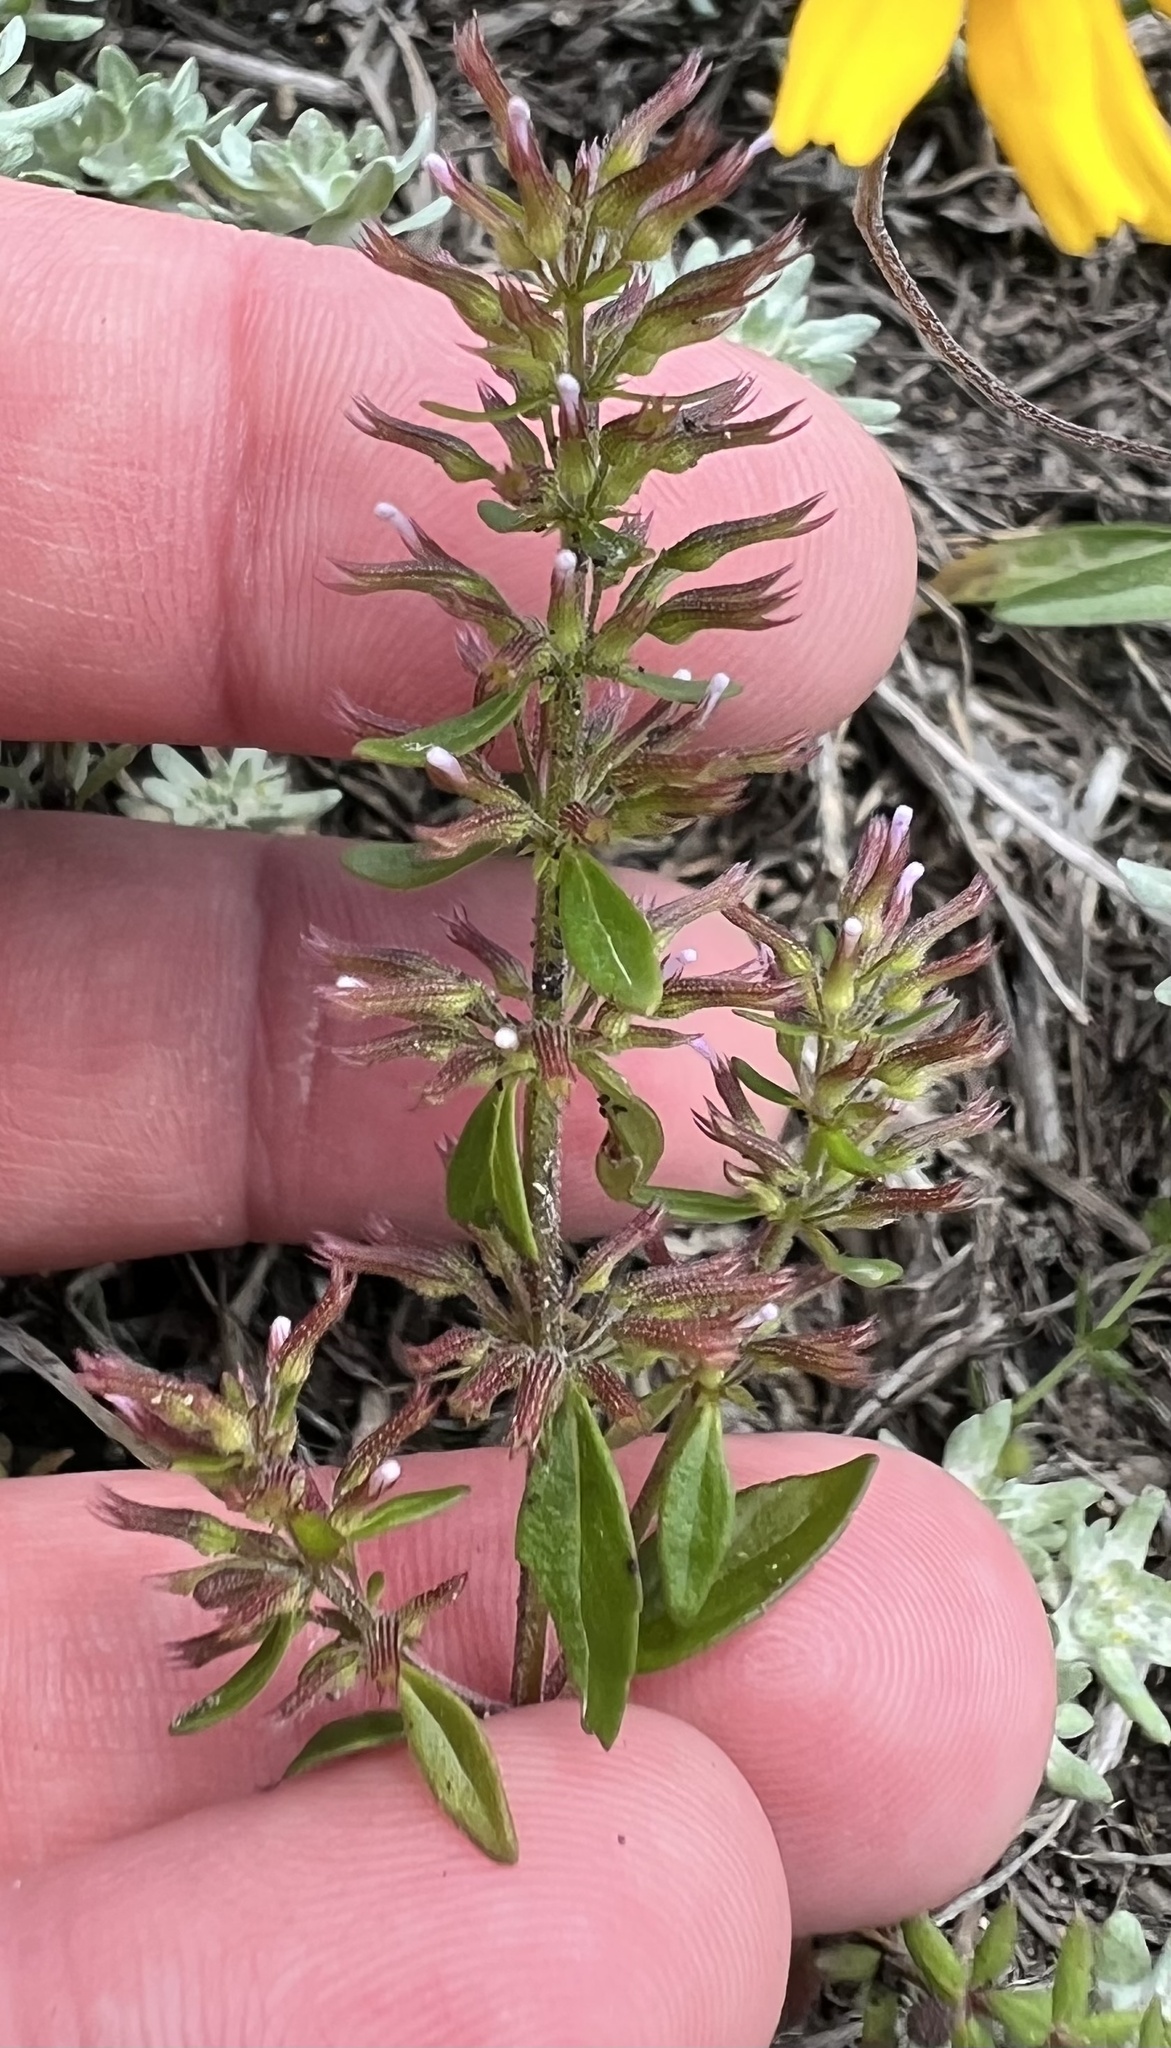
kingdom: Plantae
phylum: Tracheophyta
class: Magnoliopsida
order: Lamiales
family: Lamiaceae
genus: Hedeoma
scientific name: Hedeoma acinoides
